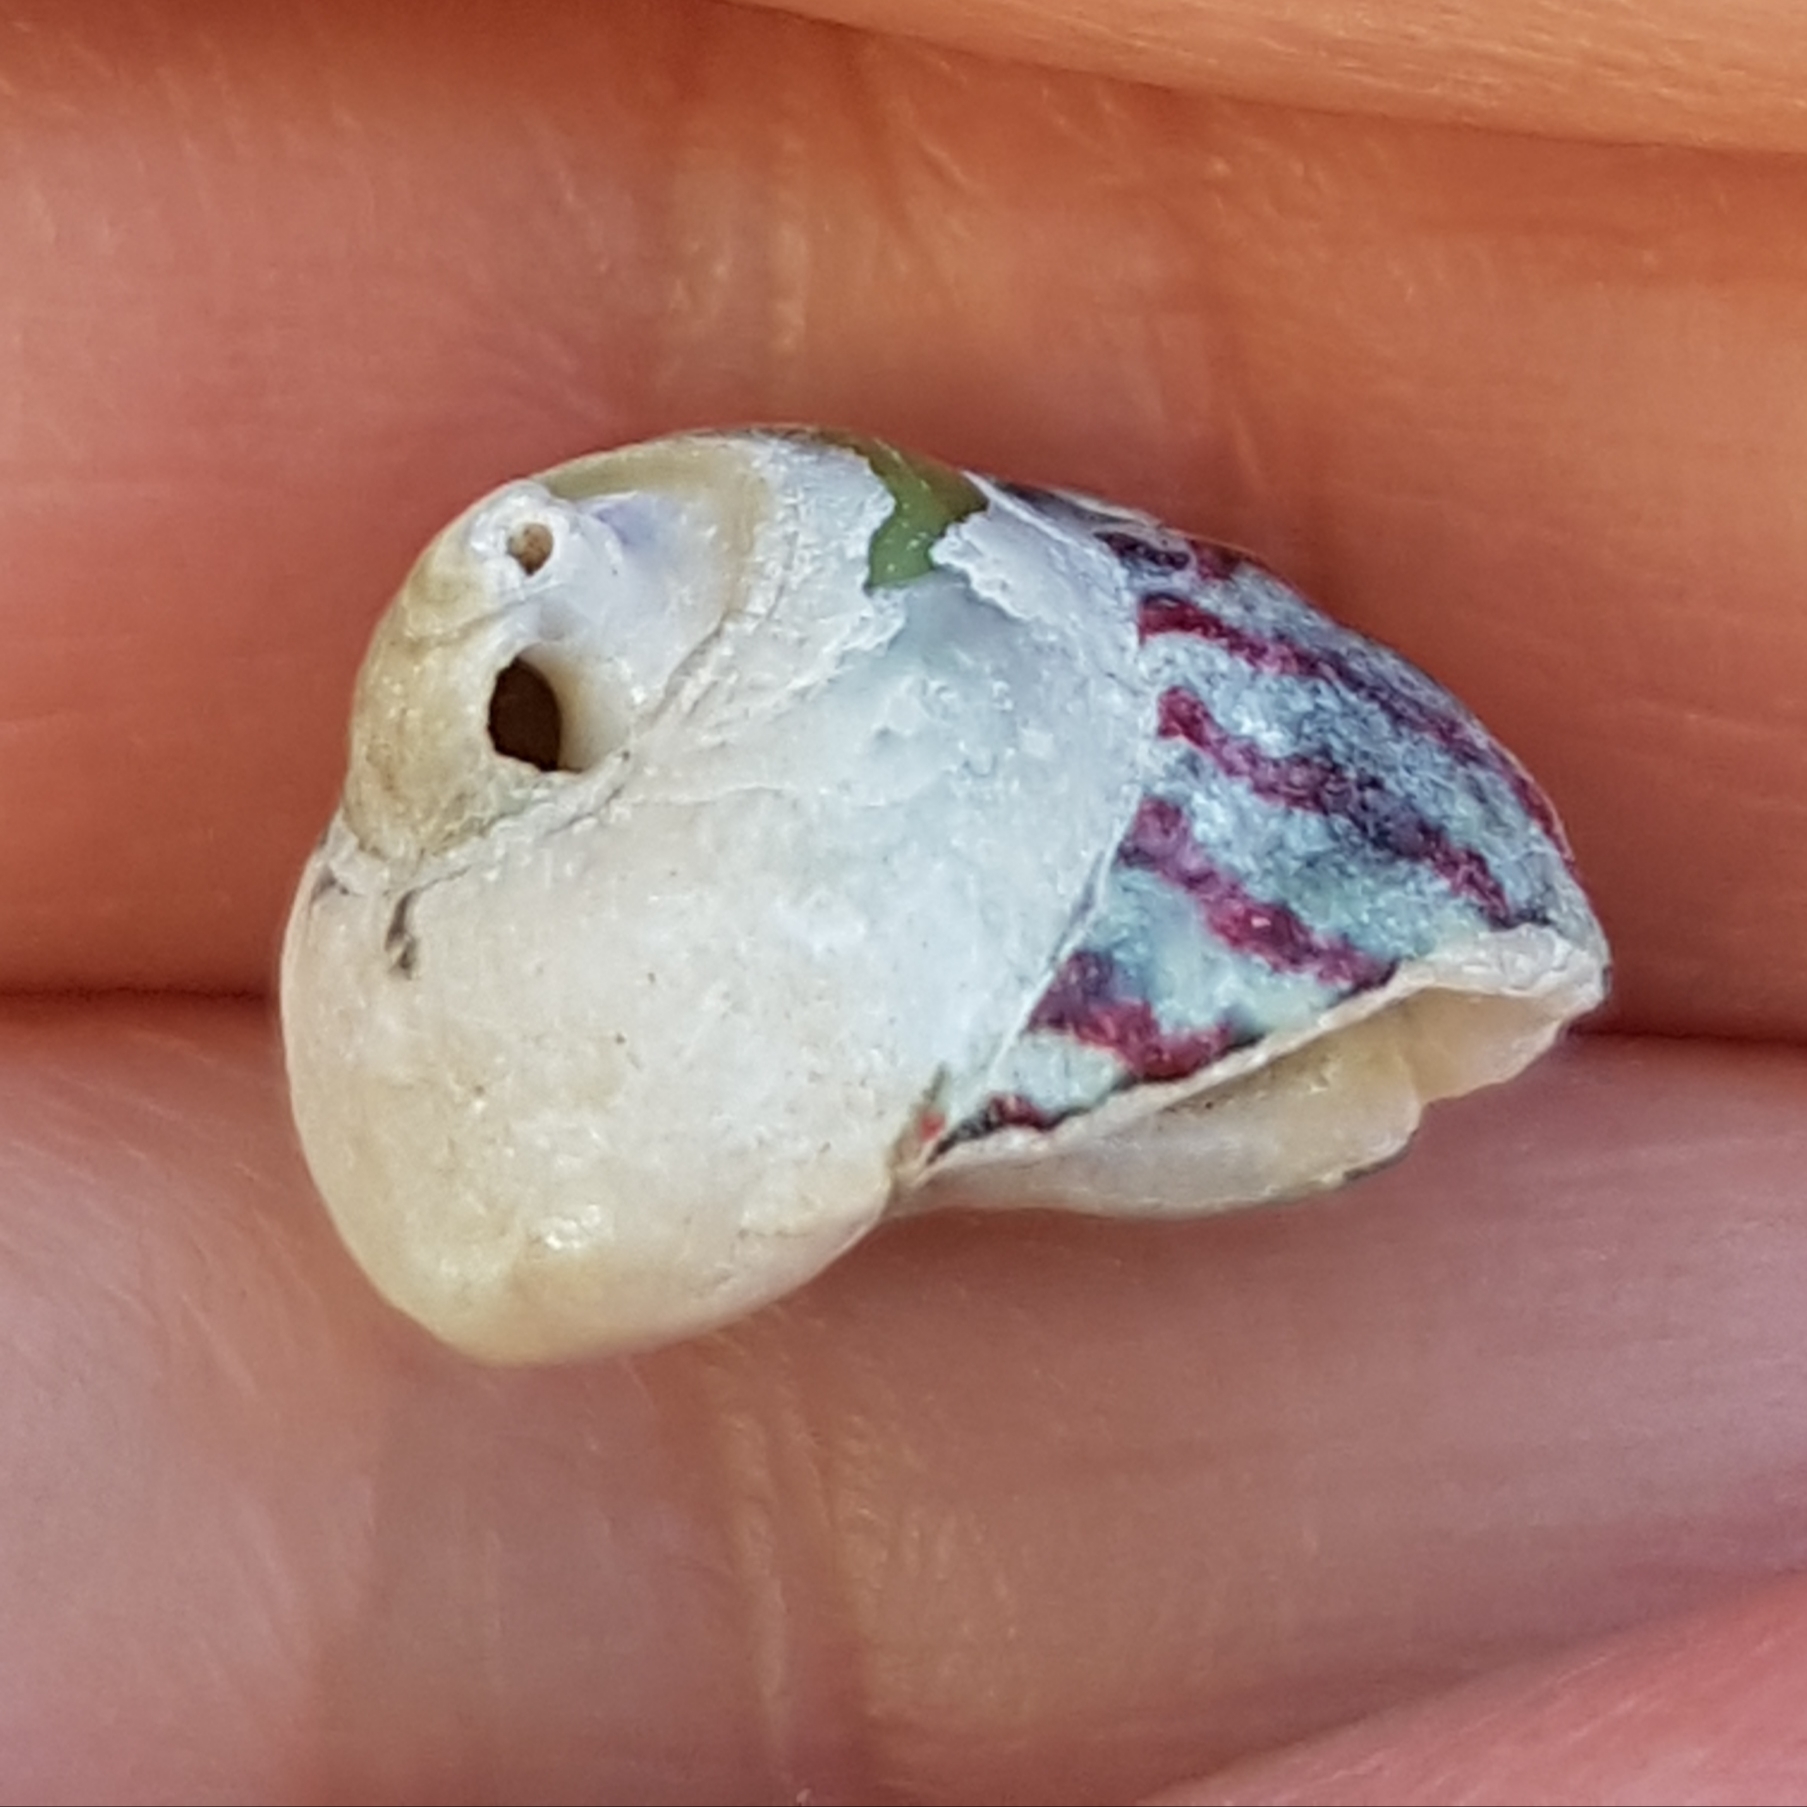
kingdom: Animalia
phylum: Mollusca
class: Gastropoda
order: Trochida
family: Trochidae
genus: Steromphala
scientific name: Steromphala pennanti
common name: Pennant's top shell
